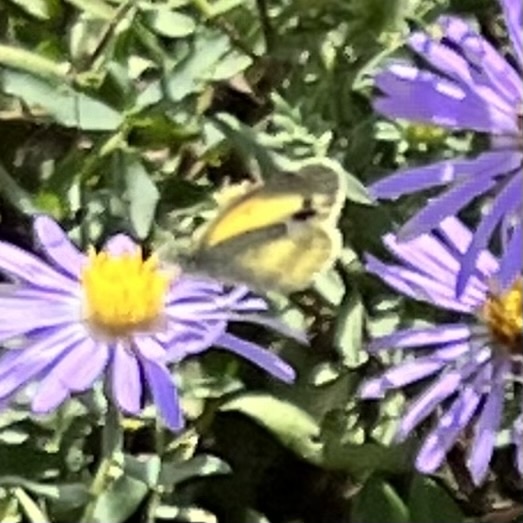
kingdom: Animalia
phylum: Arthropoda
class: Insecta
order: Lepidoptera
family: Pieridae
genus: Nathalis
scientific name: Nathalis iole
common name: Dainty sulphur
